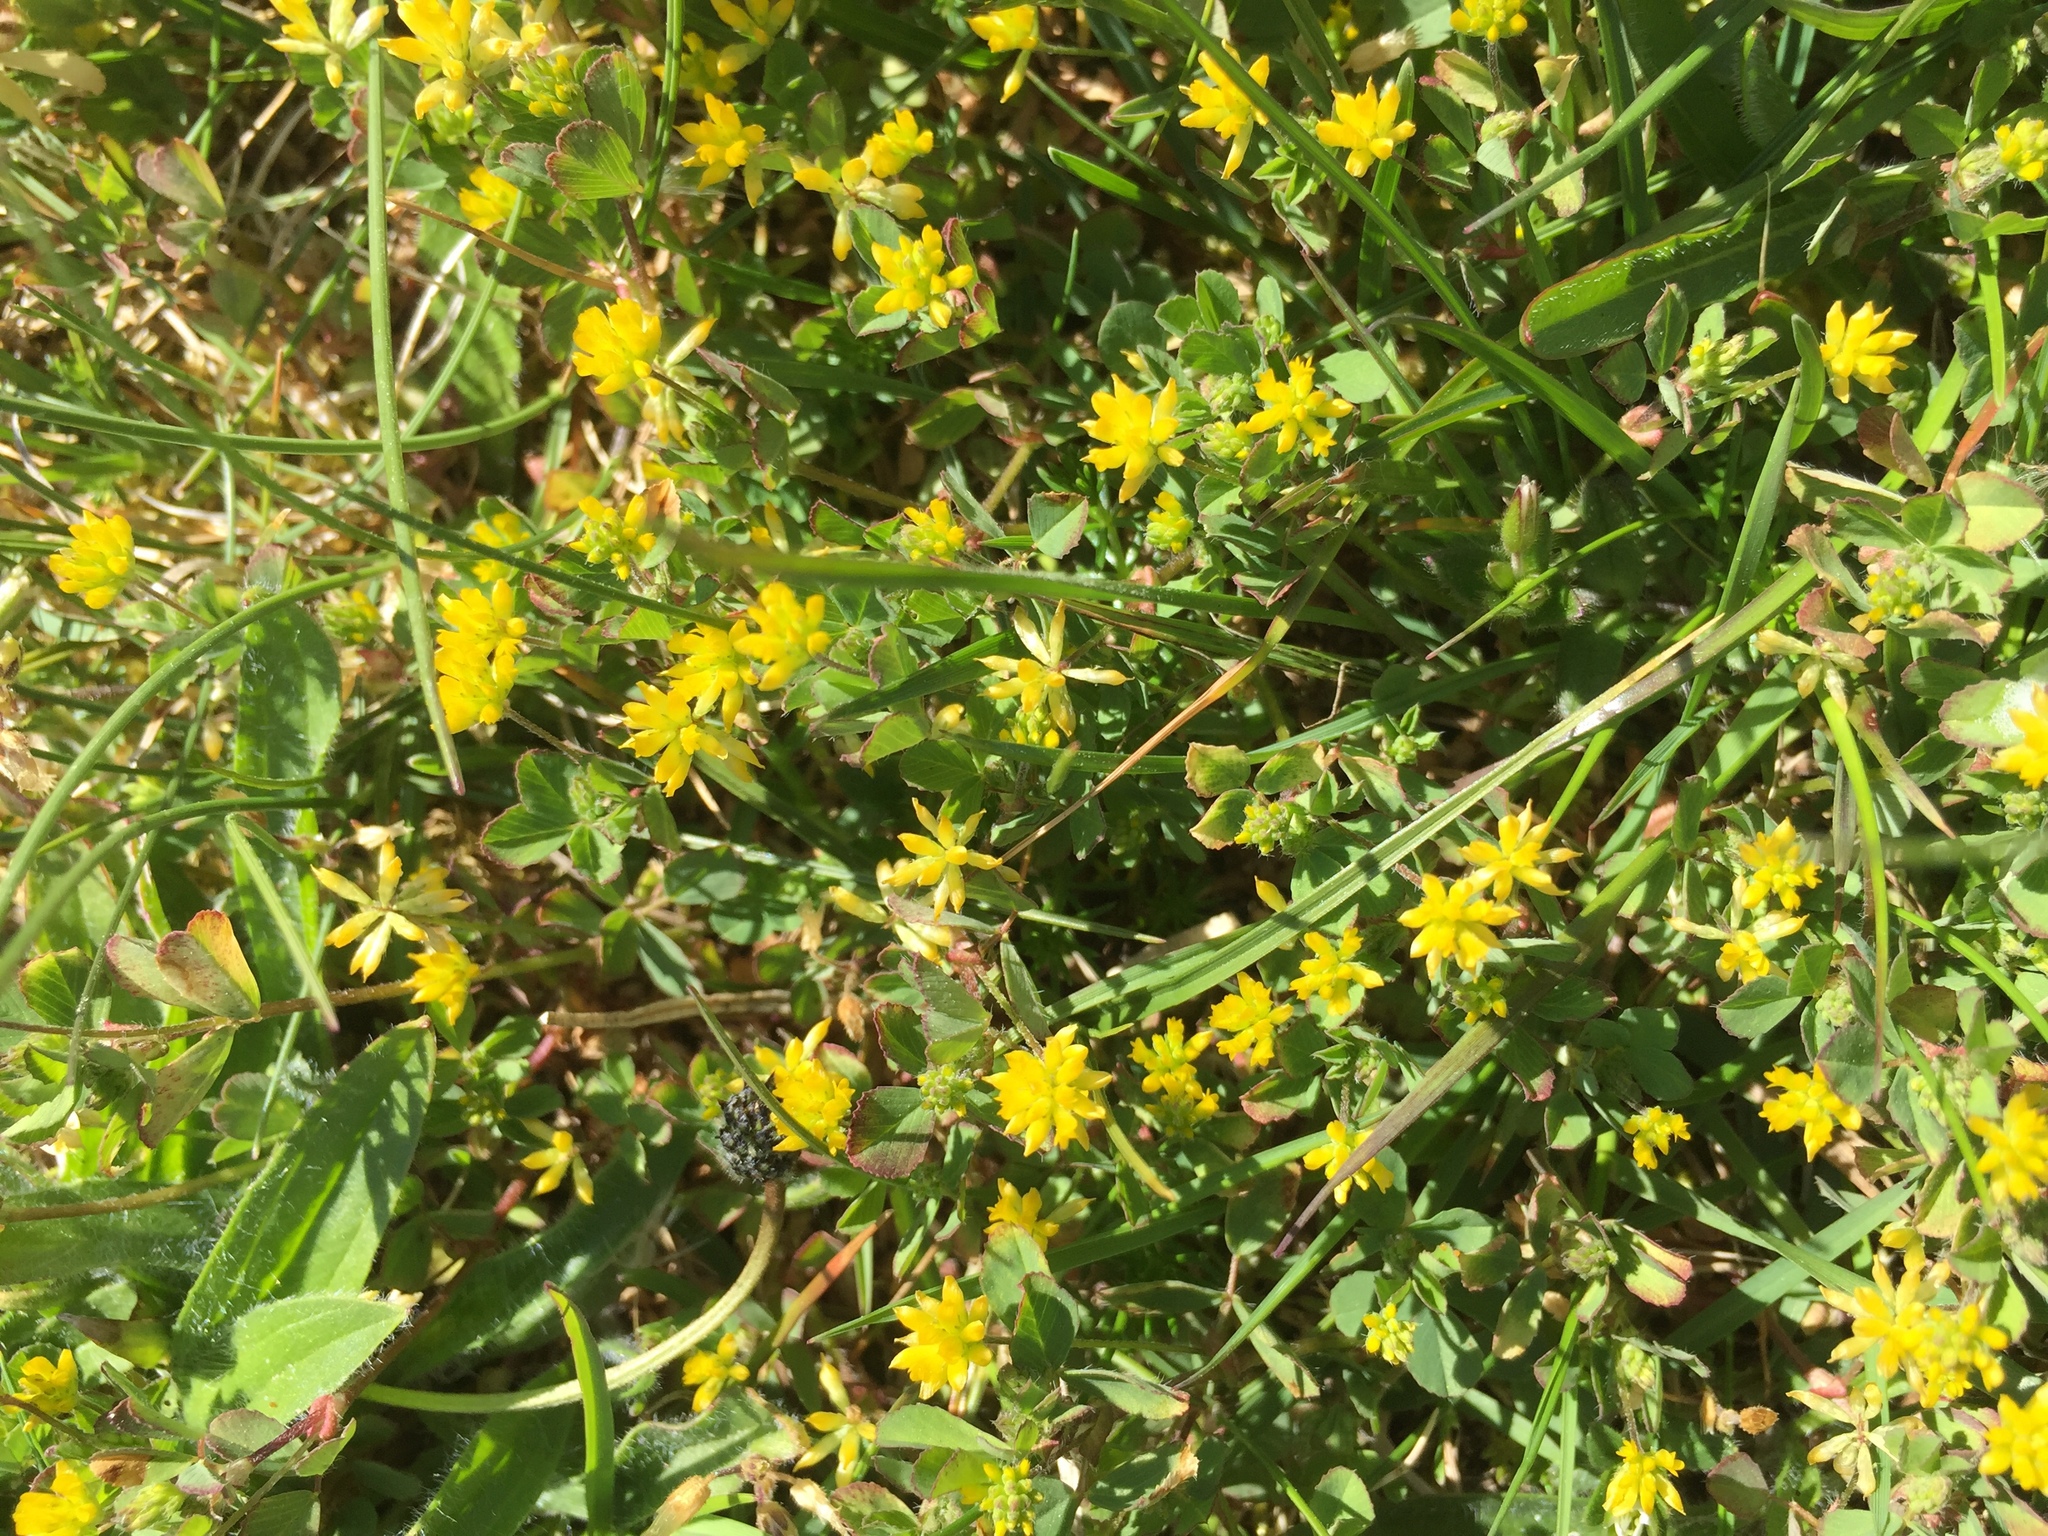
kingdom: Plantae
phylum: Tracheophyta
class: Magnoliopsida
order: Fabales
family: Fabaceae
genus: Trifolium
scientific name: Trifolium dubium
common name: Suckling clover
